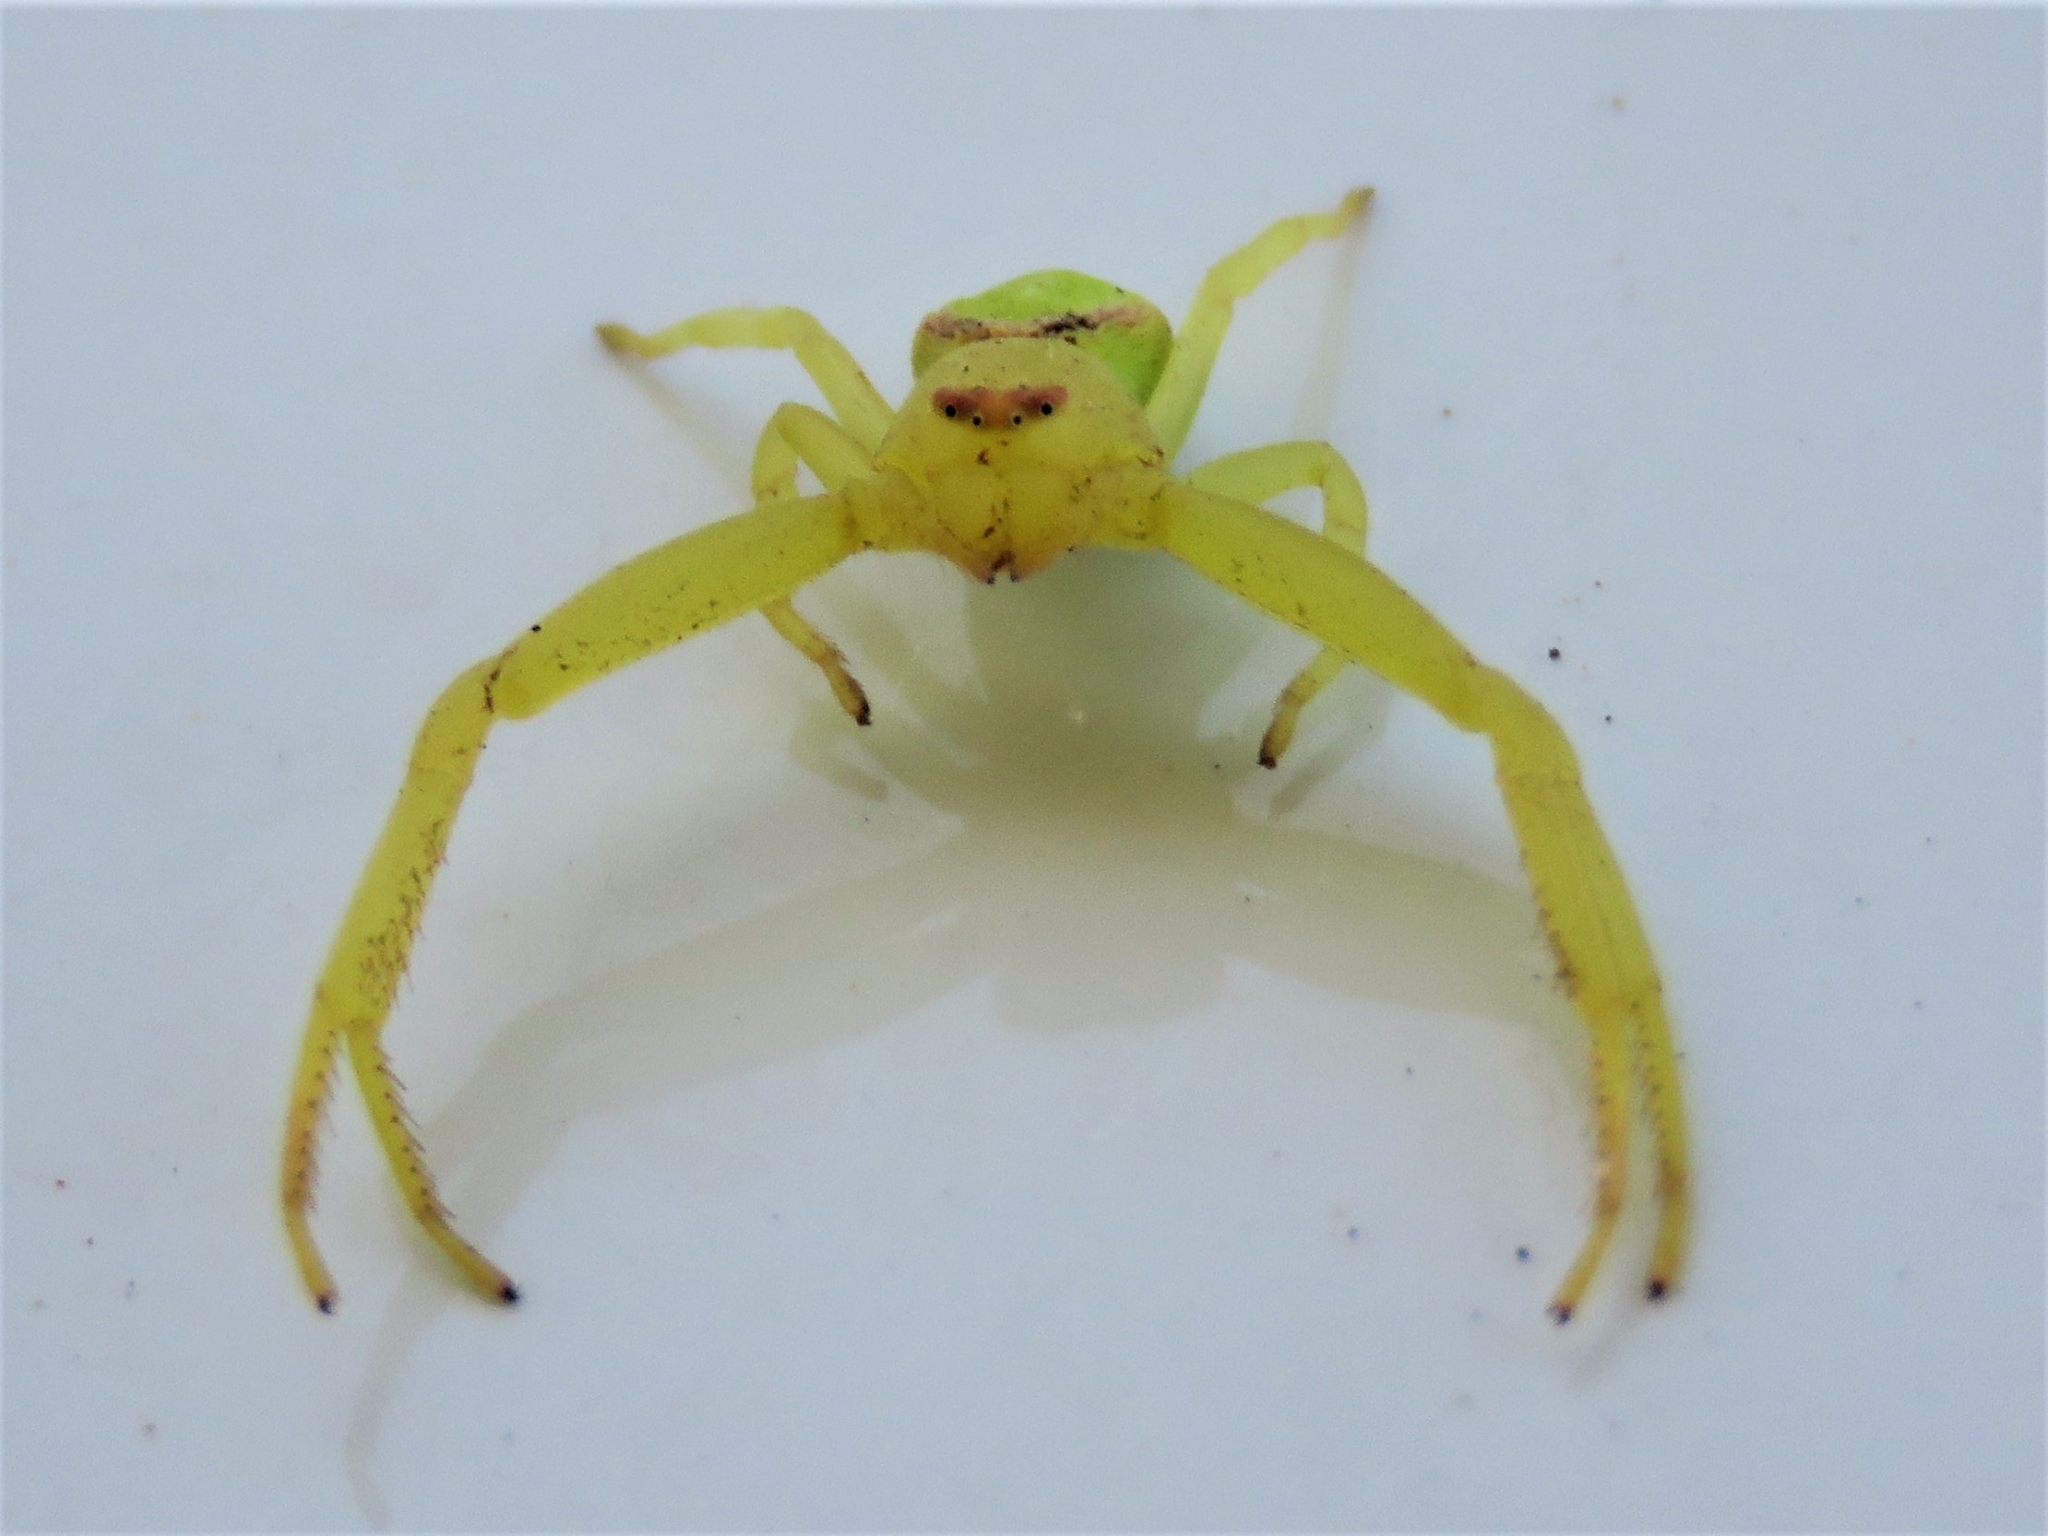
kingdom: Animalia
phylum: Arthropoda
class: Arachnida
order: Araneae
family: Thomisidae
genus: Misumena
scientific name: Misumena spinifera
